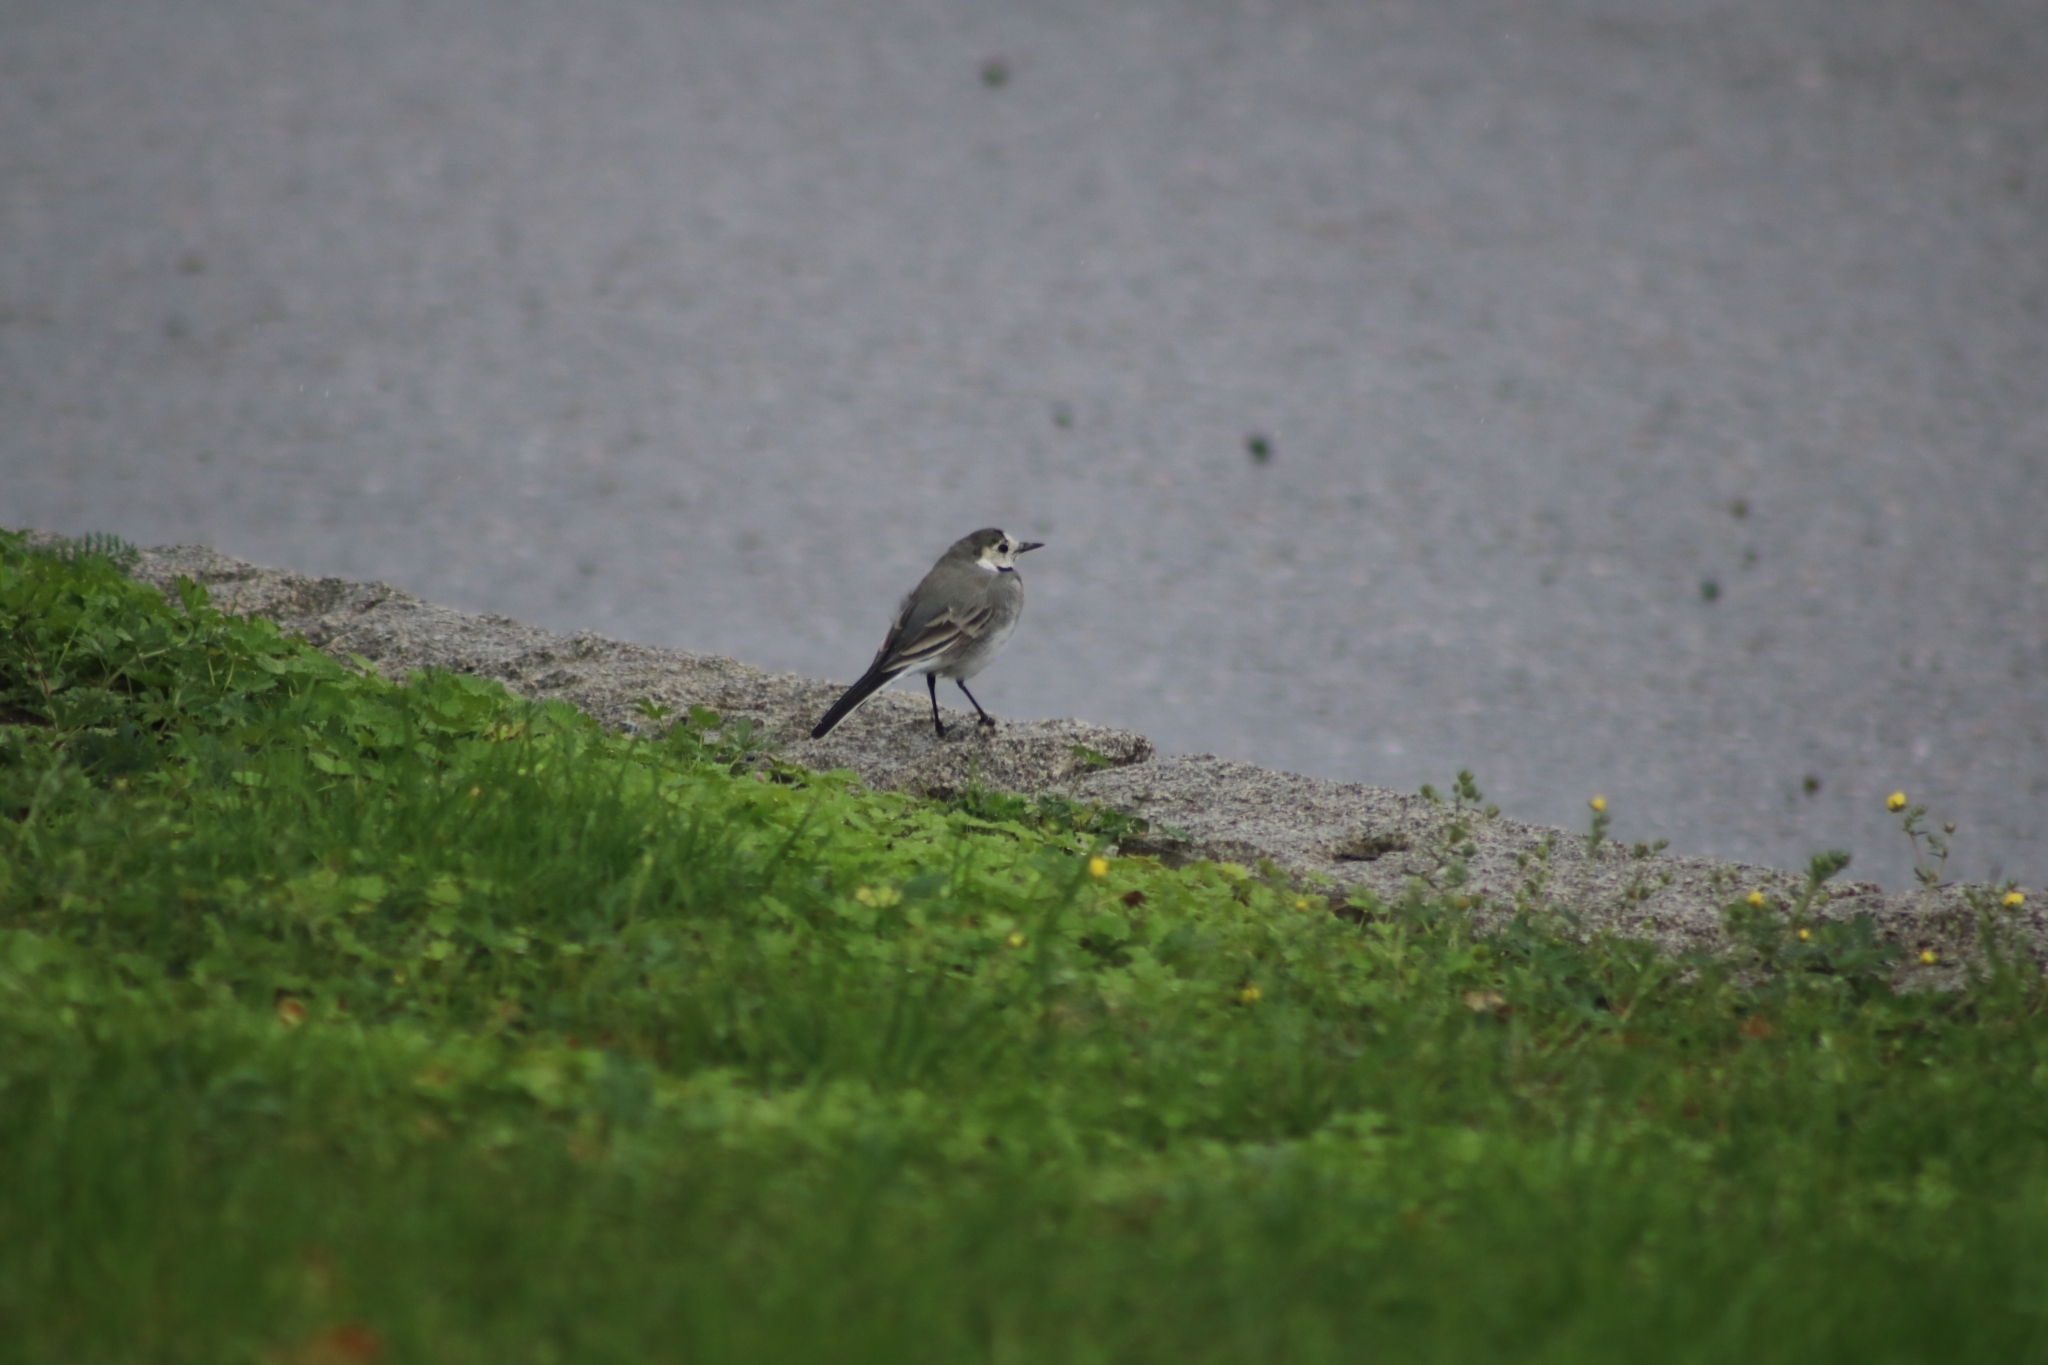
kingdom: Animalia
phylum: Chordata
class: Aves
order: Passeriformes
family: Motacillidae
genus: Motacilla
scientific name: Motacilla alba
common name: White wagtail
